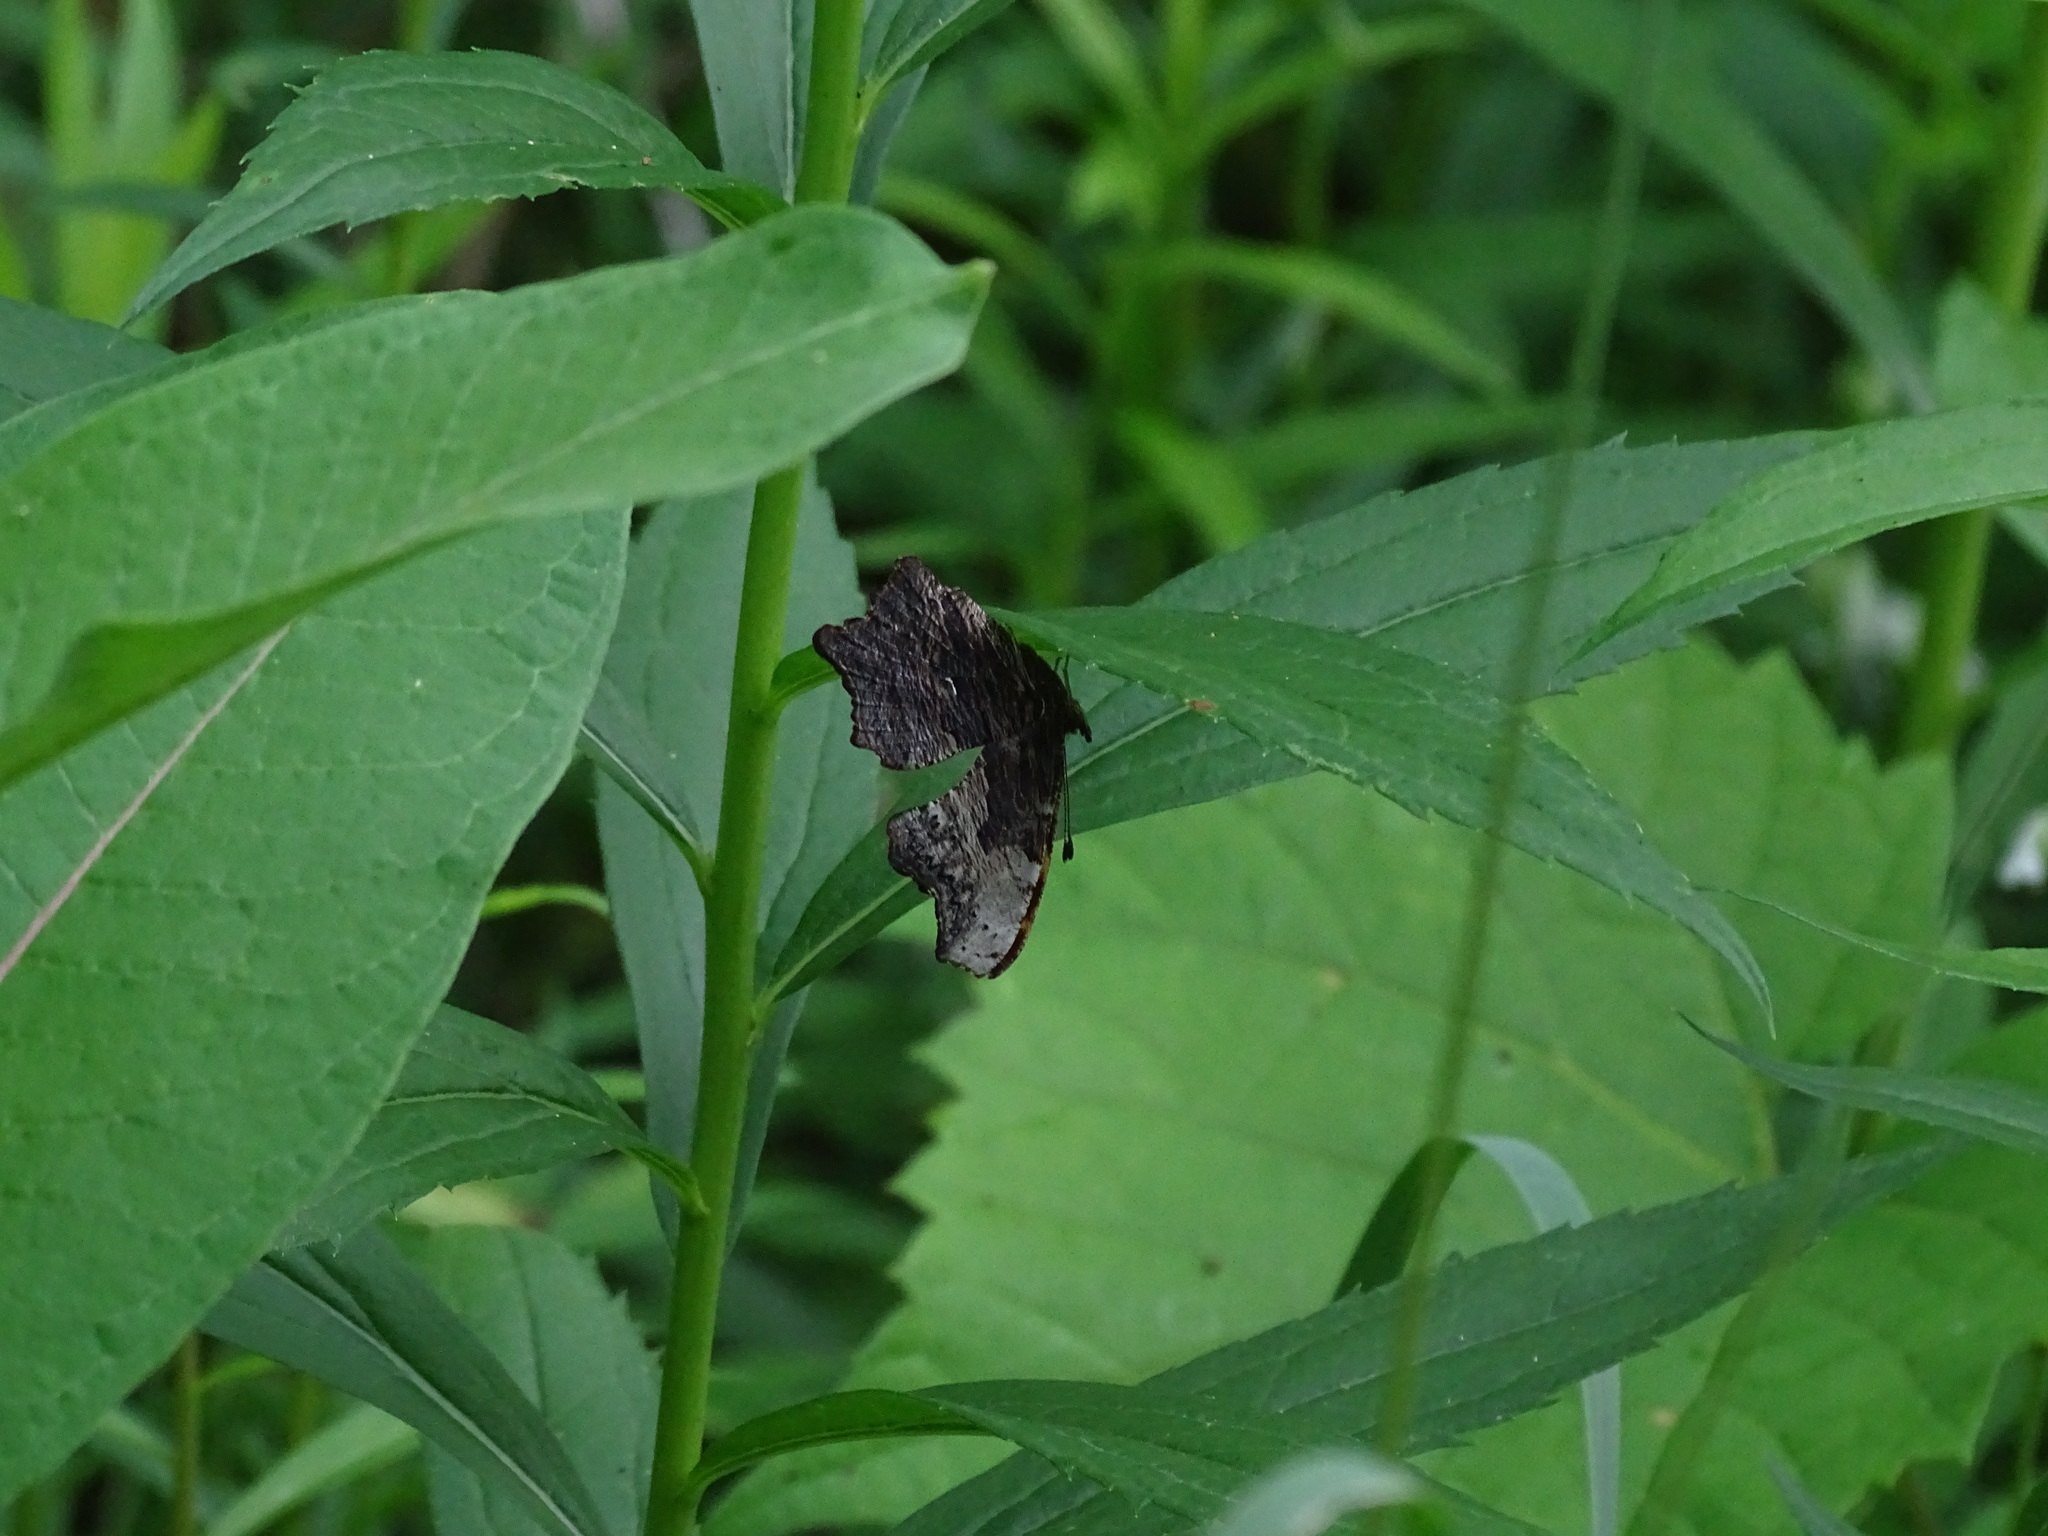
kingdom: Animalia
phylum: Arthropoda
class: Insecta
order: Lepidoptera
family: Nymphalidae
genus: Polygonia
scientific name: Polygonia progne
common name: Gray comma
